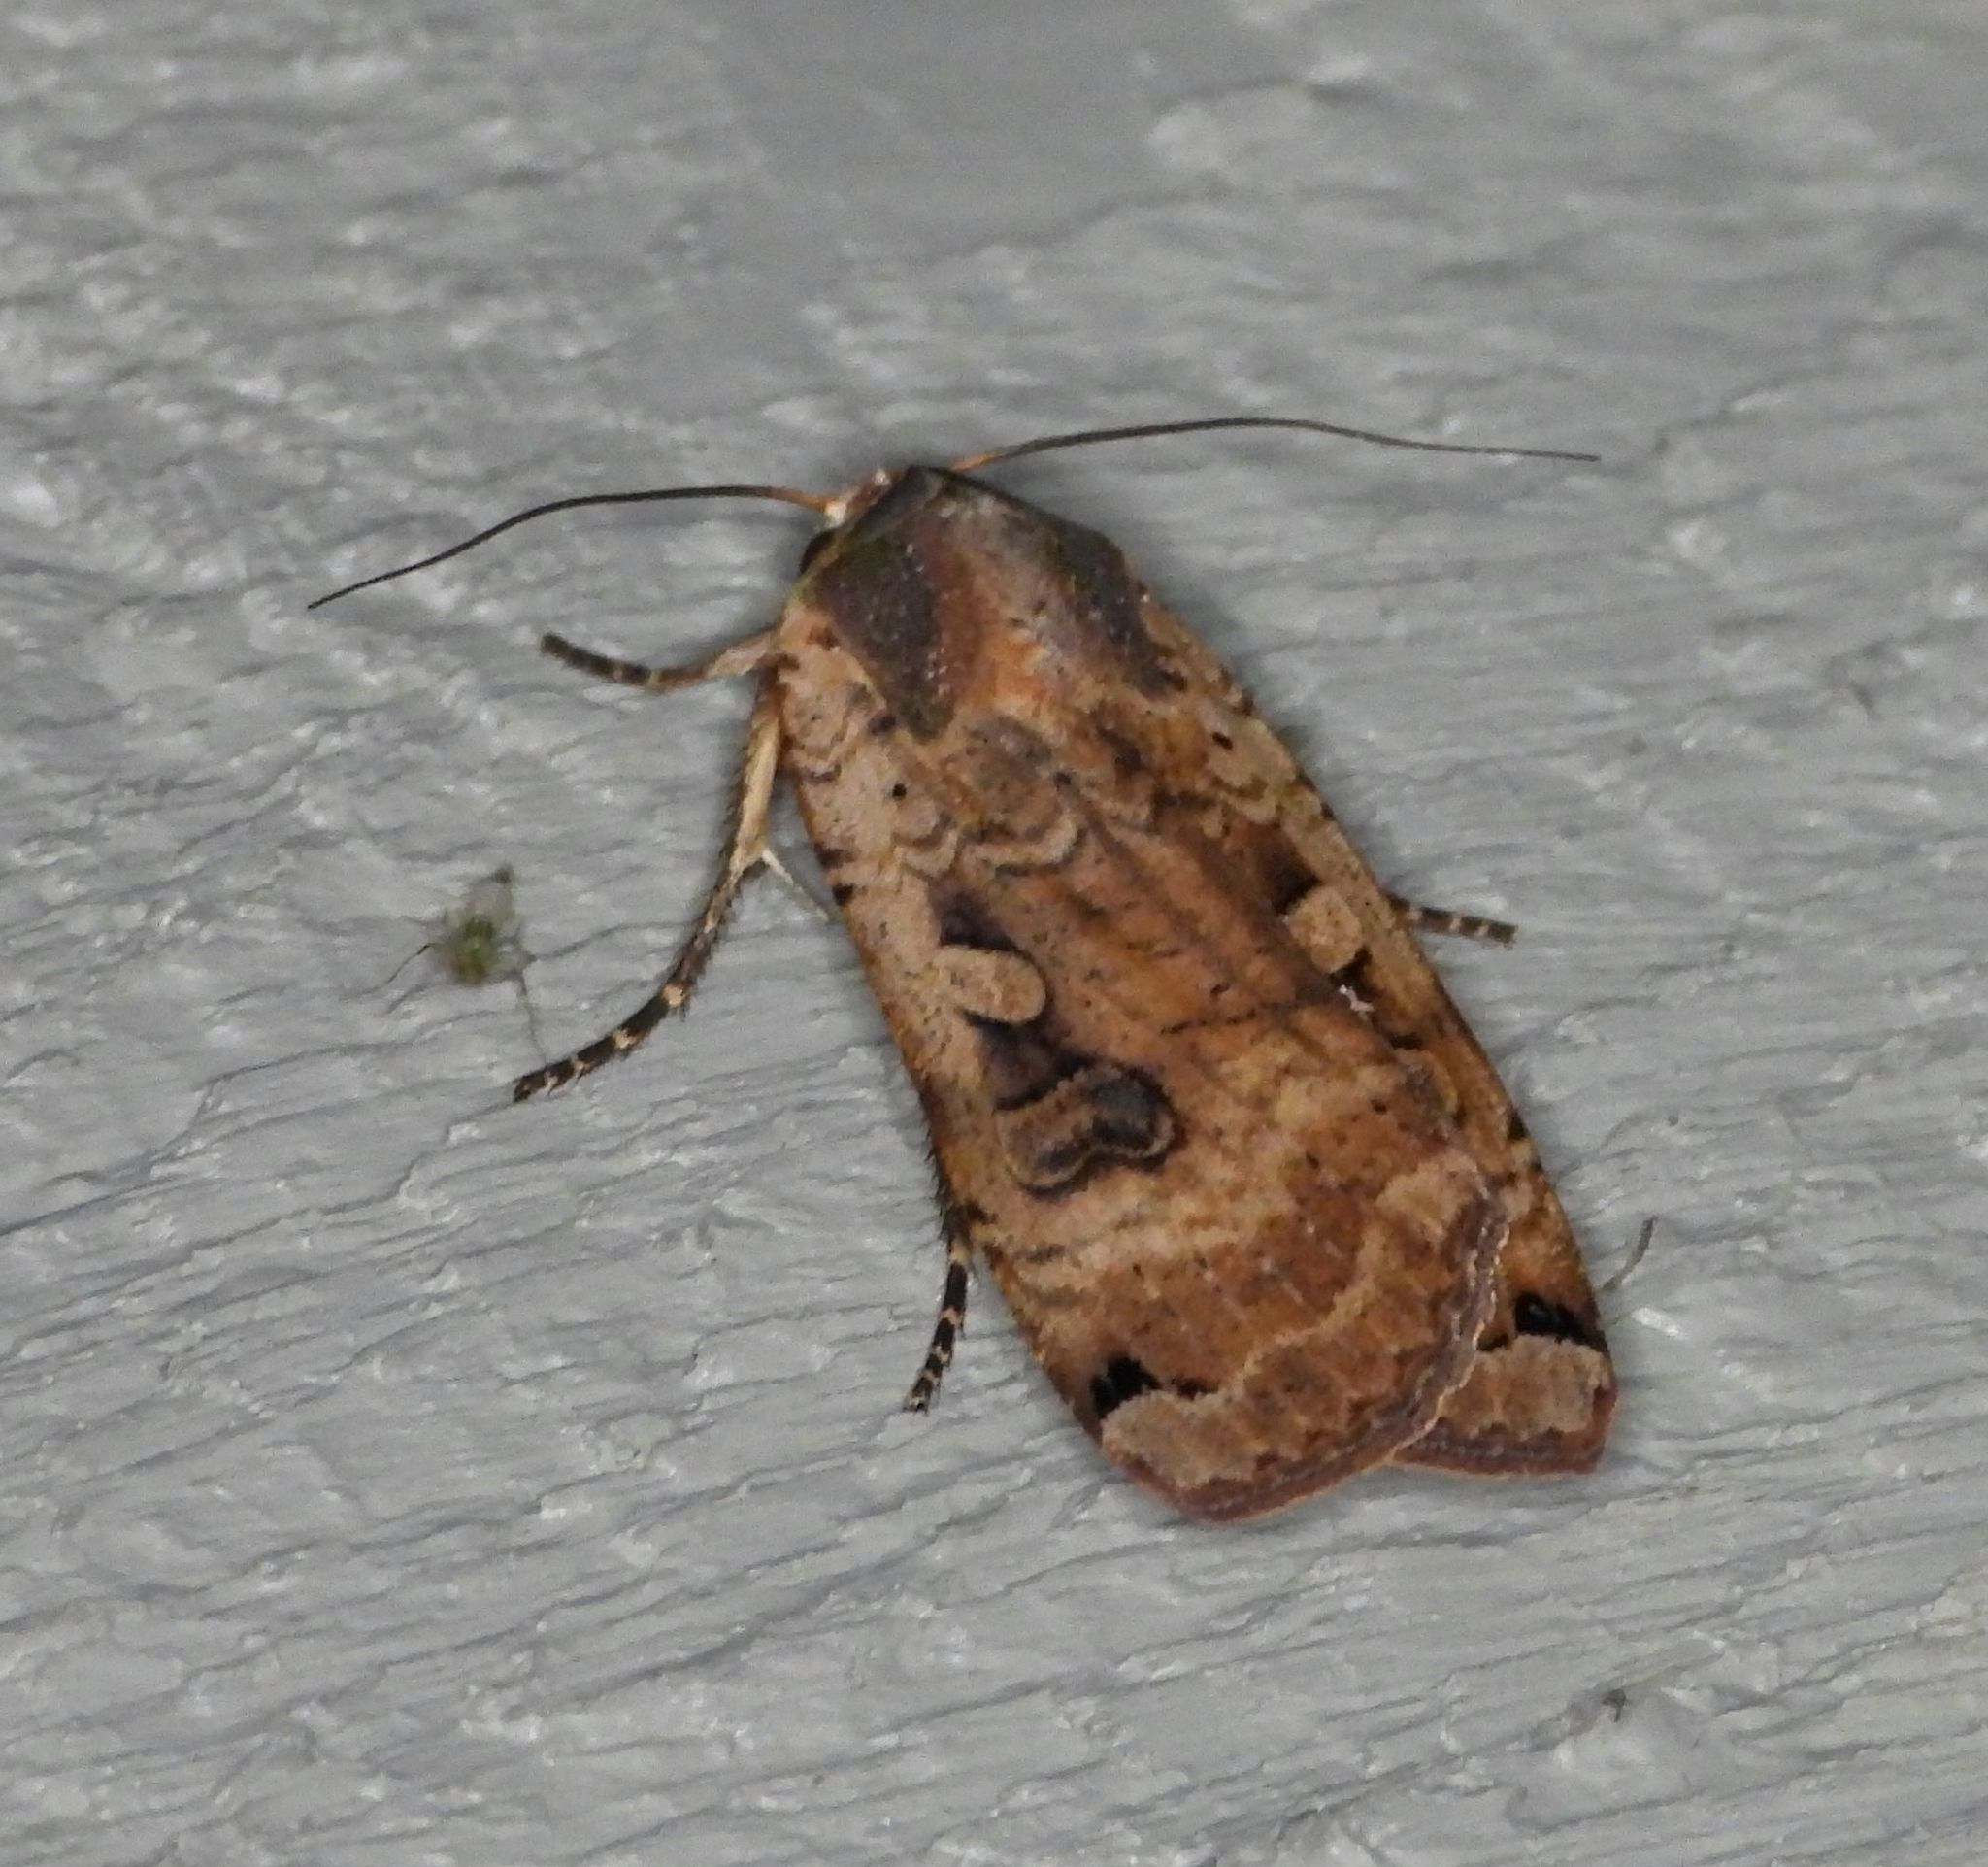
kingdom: Animalia
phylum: Arthropoda
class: Insecta
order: Lepidoptera
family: Noctuidae
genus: Noctua
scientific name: Noctua pronuba
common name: Large yellow underwing
